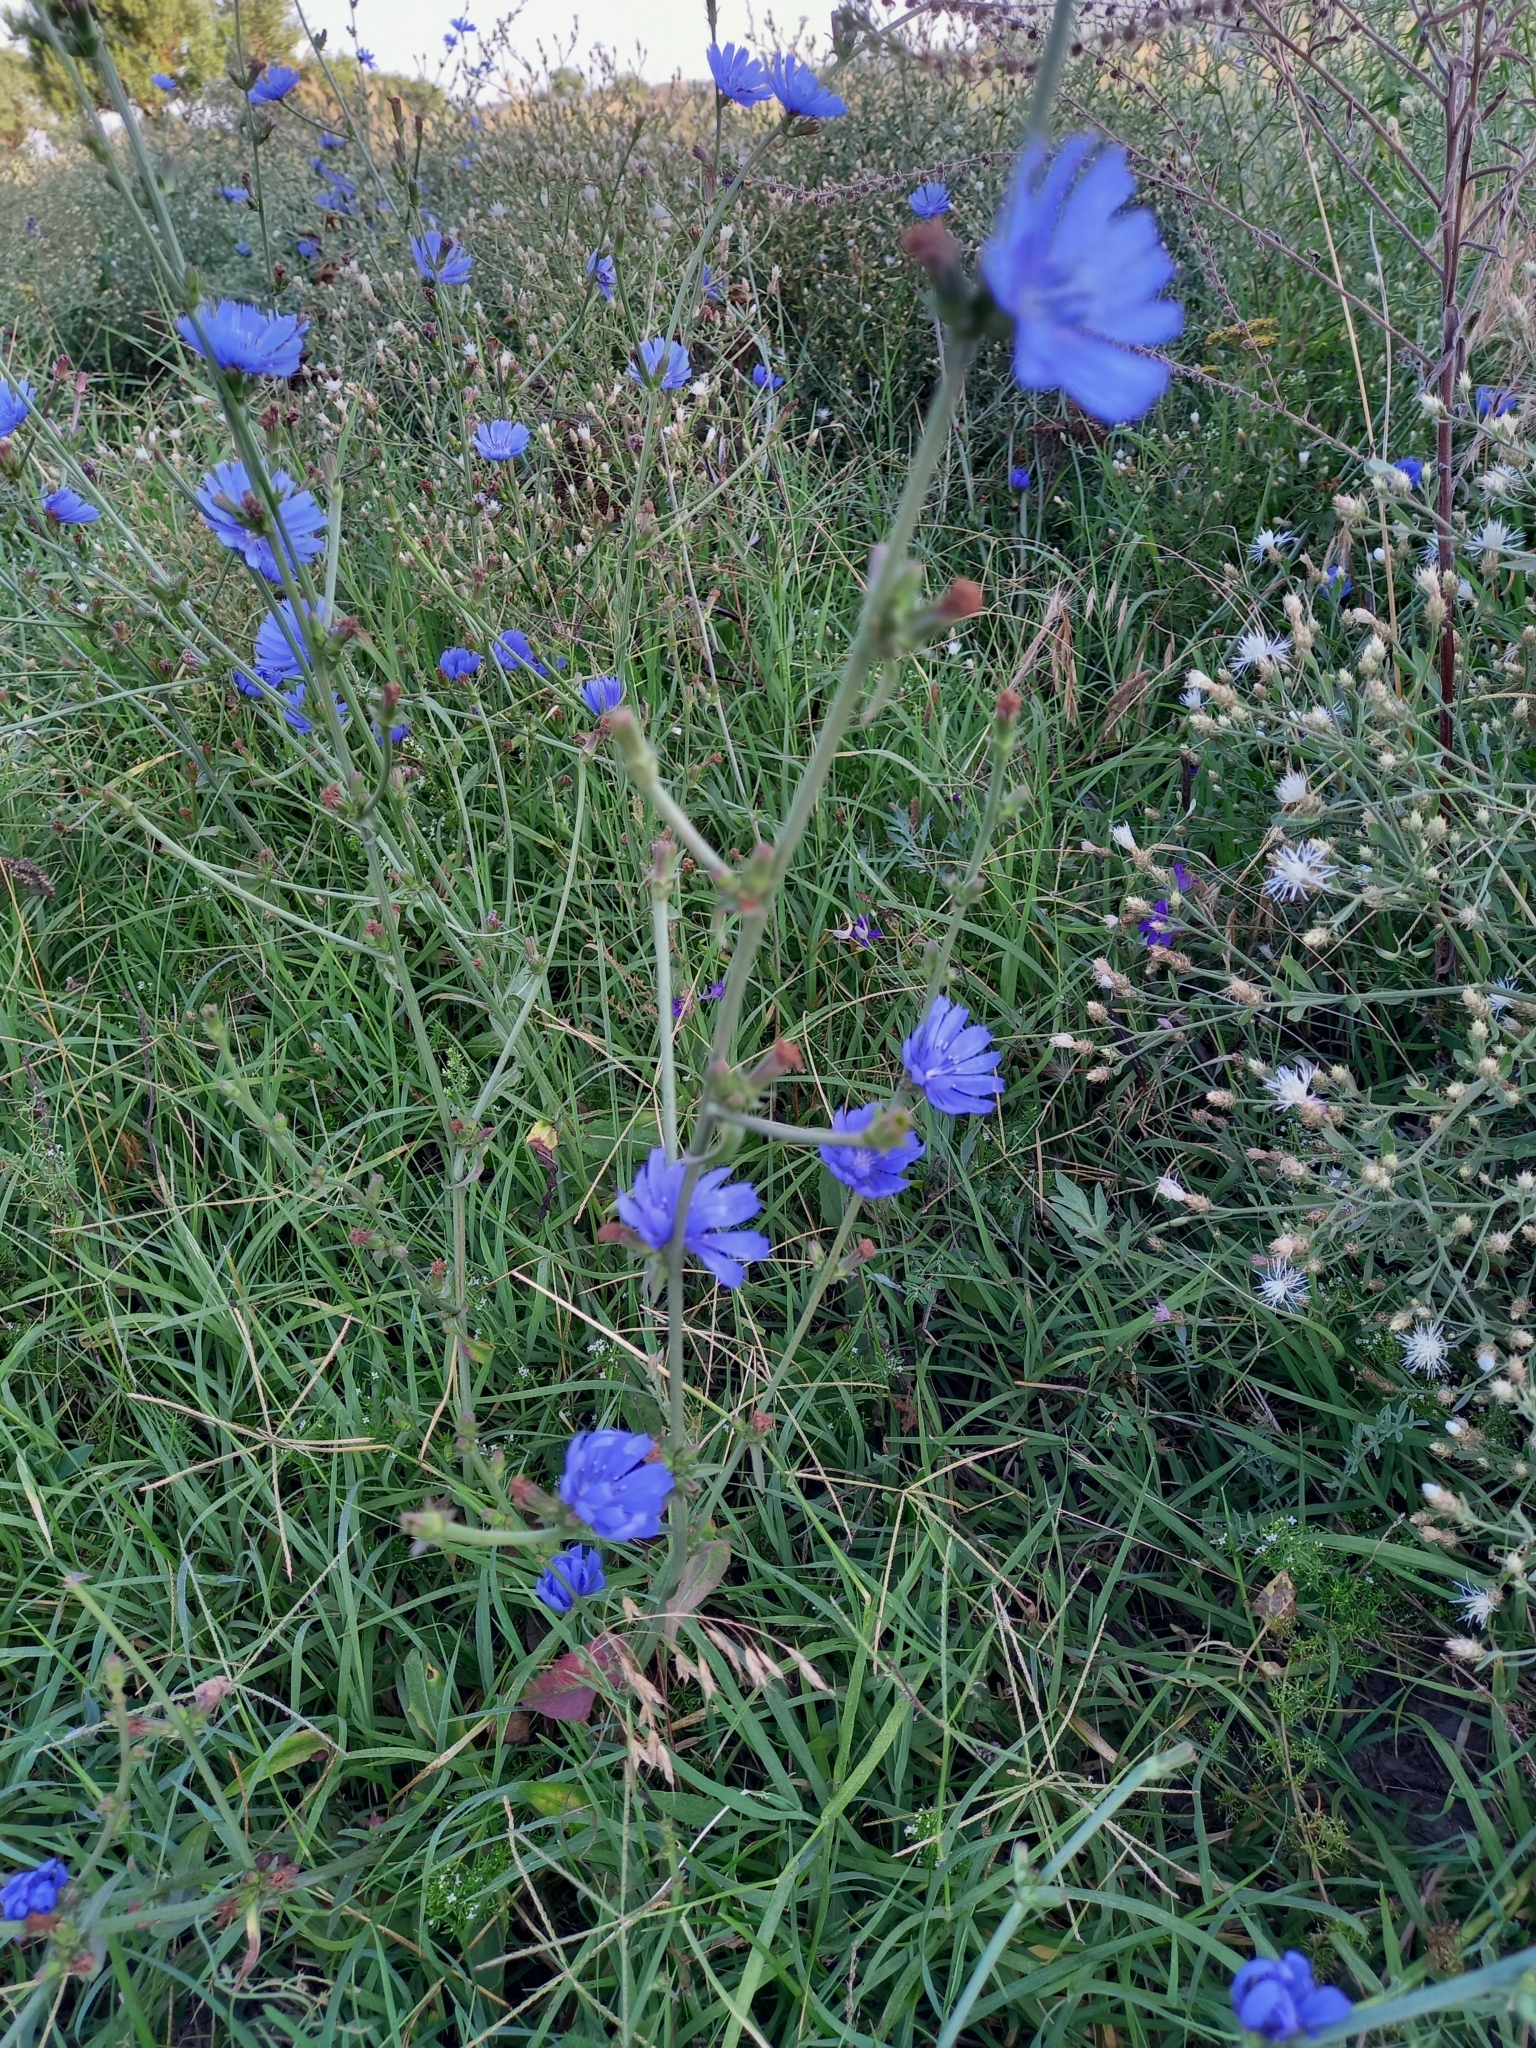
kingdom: Plantae
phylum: Tracheophyta
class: Magnoliopsida
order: Asterales
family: Asteraceae
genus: Cichorium
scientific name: Cichorium intybus
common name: Chicory
